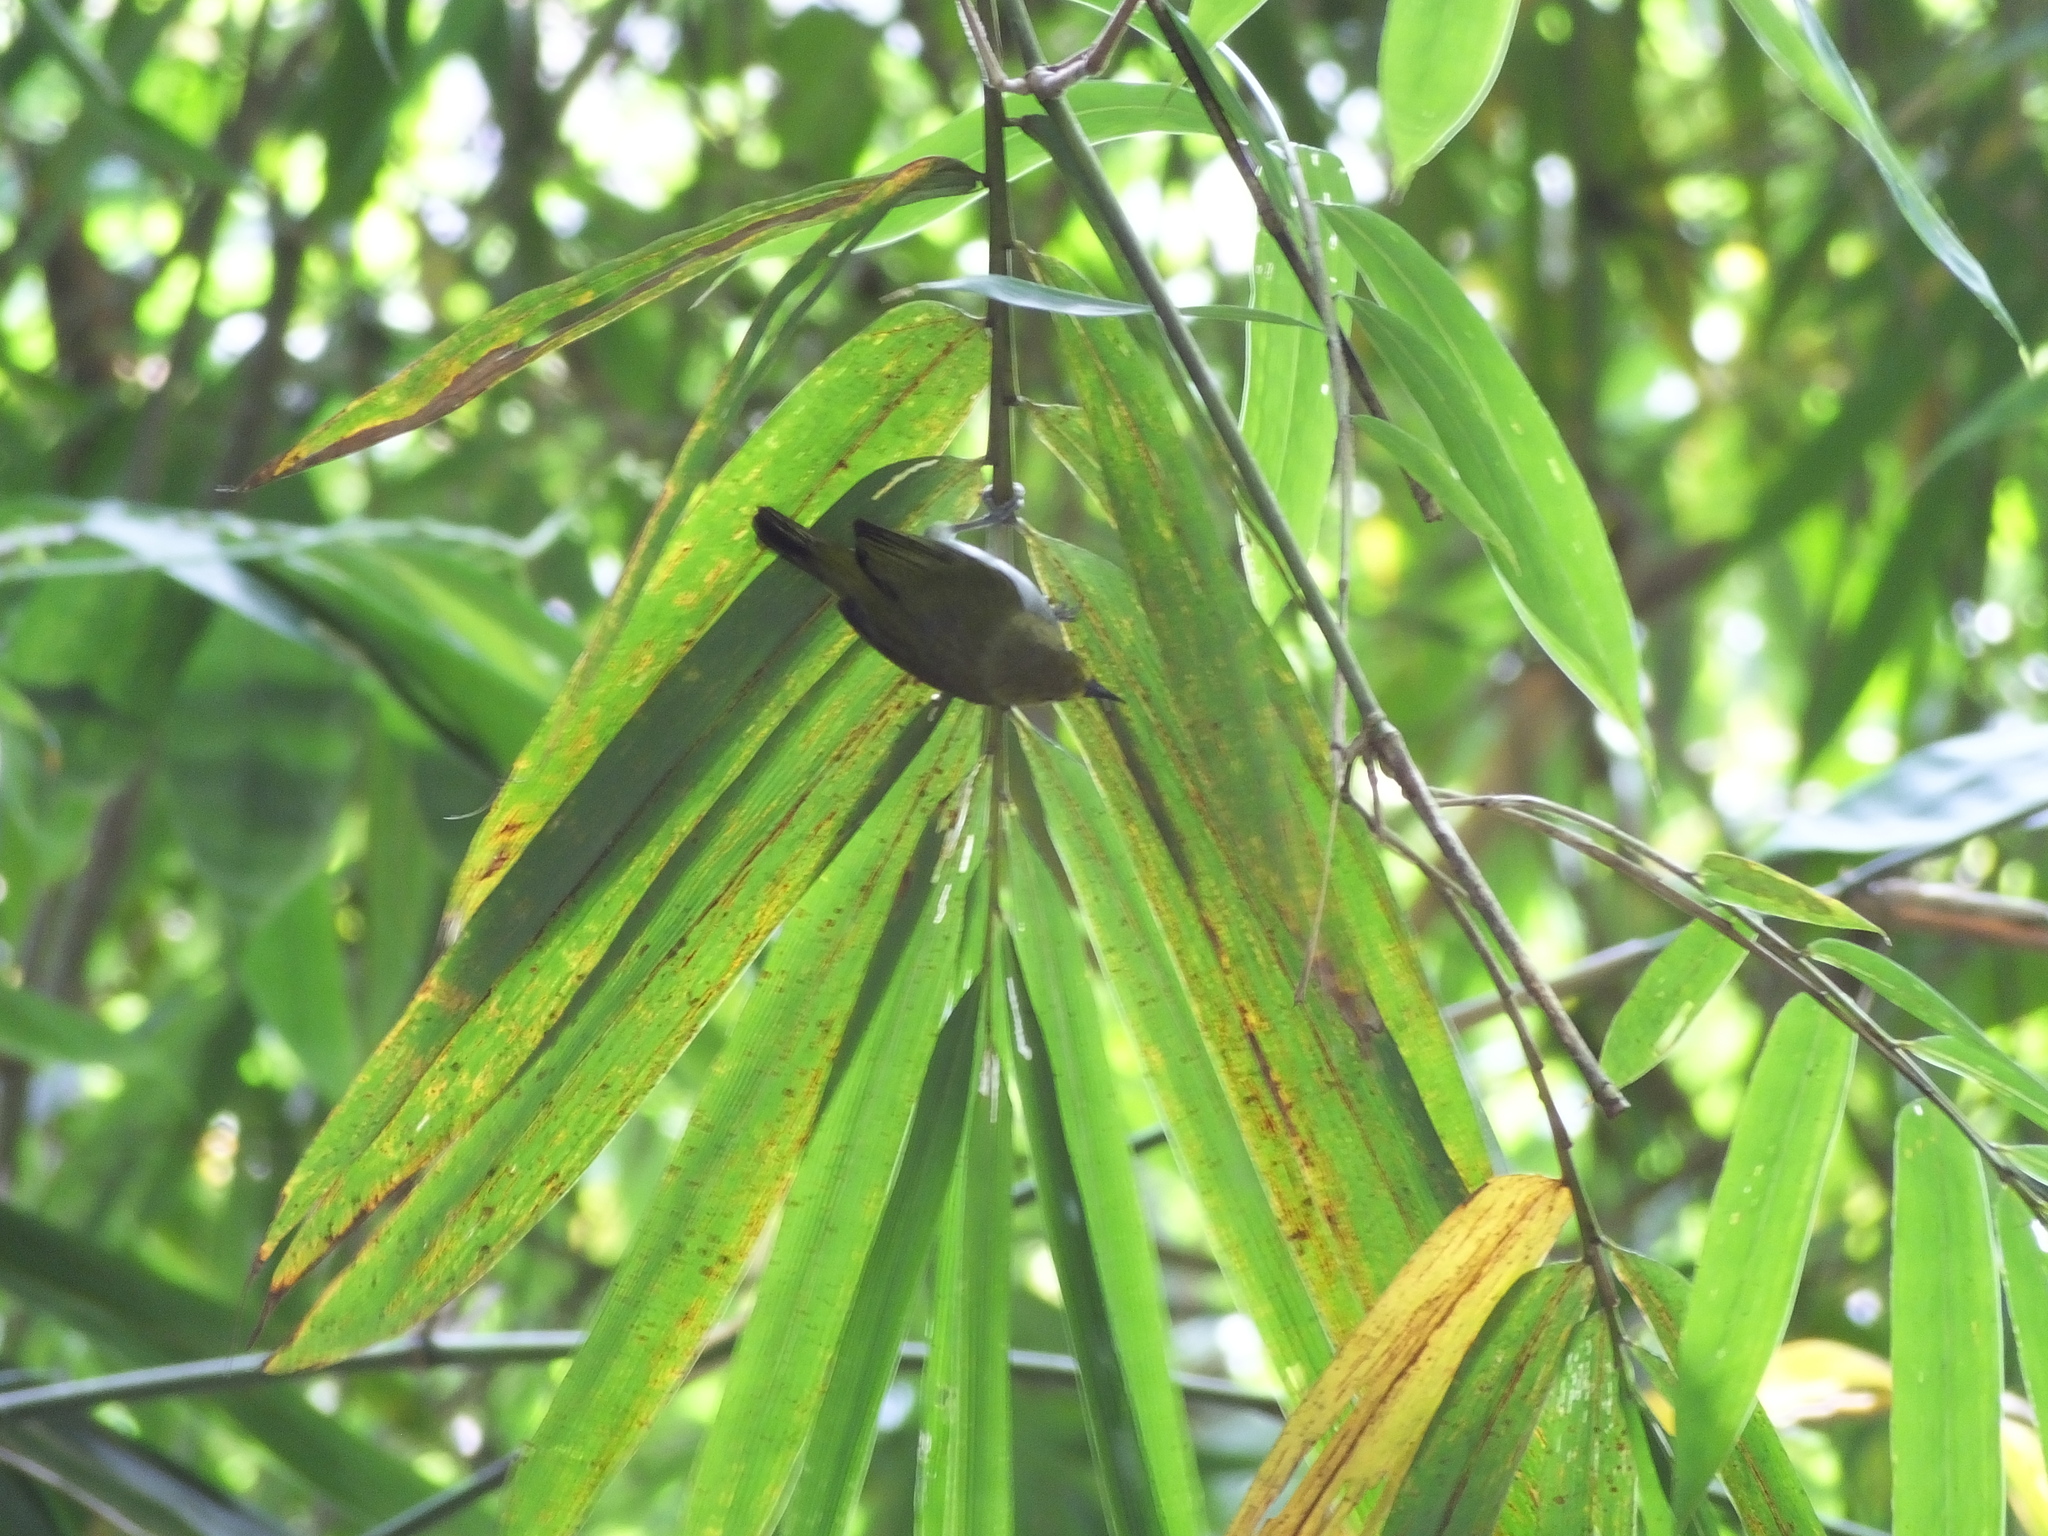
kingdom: Animalia
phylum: Chordata
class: Aves
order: Passeriformes
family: Zosteropidae
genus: Zosterops
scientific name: Zosterops anomalus
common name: Black-ringed white-eye
